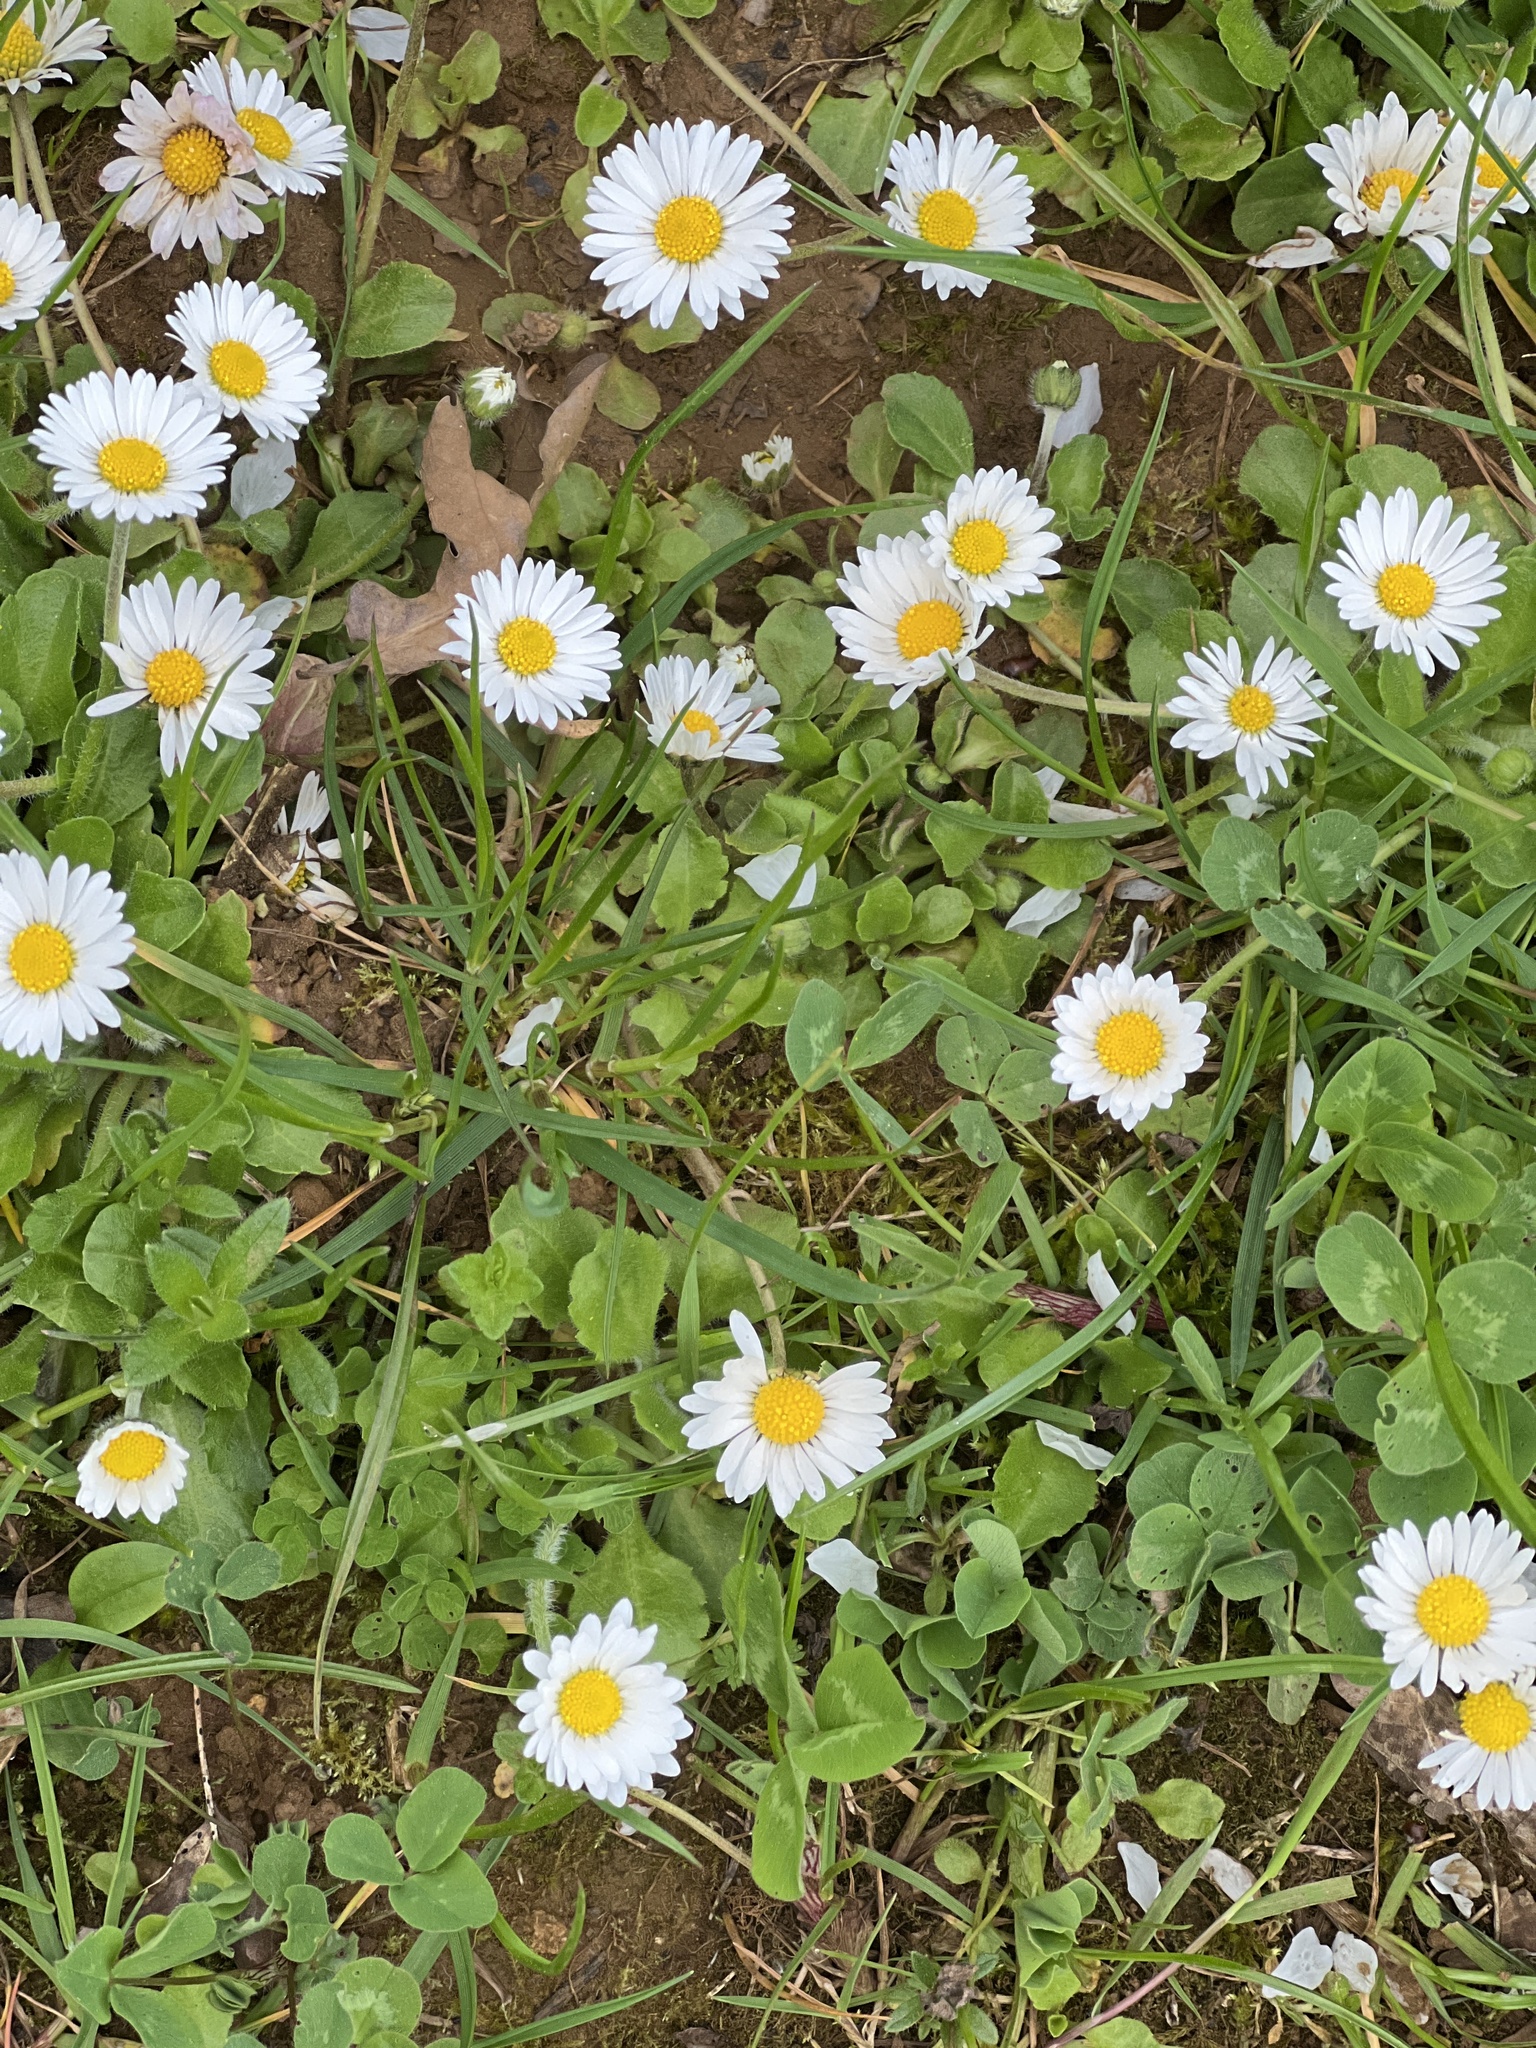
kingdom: Plantae
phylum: Tracheophyta
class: Magnoliopsida
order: Asterales
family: Asteraceae
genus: Bellis
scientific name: Bellis perennis
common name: Lawndaisy
